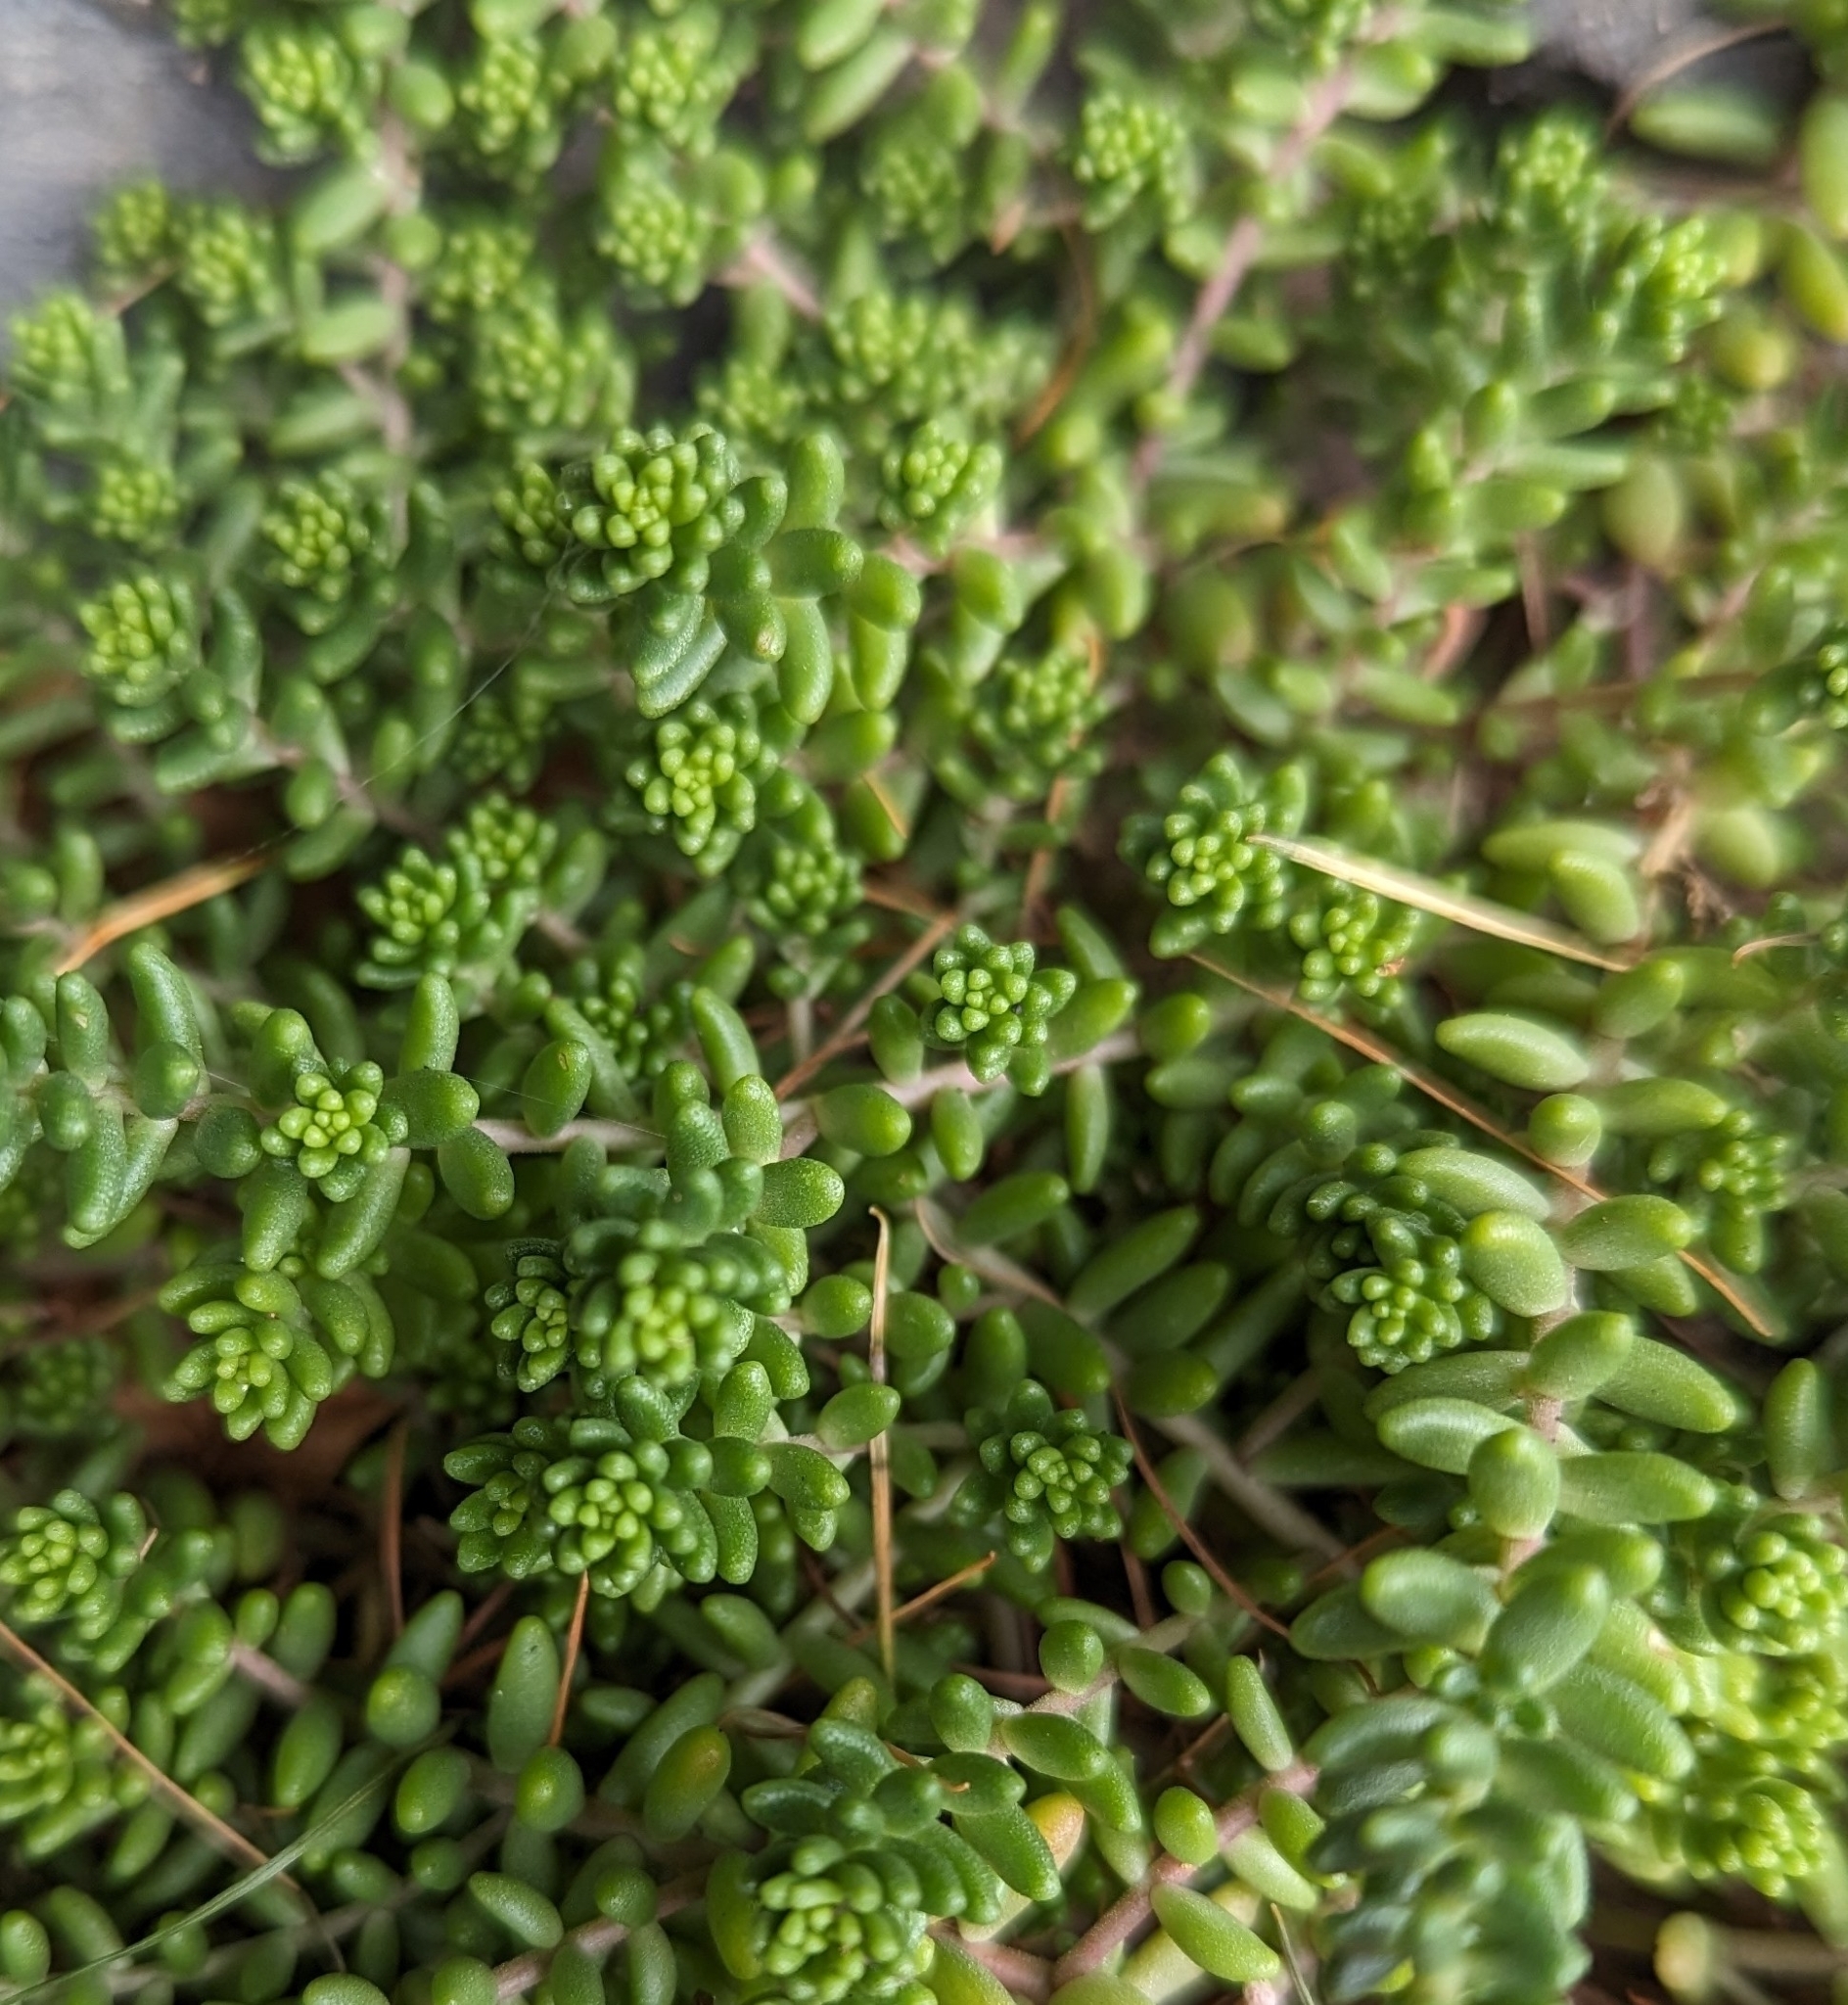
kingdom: Plantae
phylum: Tracheophyta
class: Magnoliopsida
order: Saxifragales
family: Crassulaceae
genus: Sedum
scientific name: Sedum album
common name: White stonecrop
